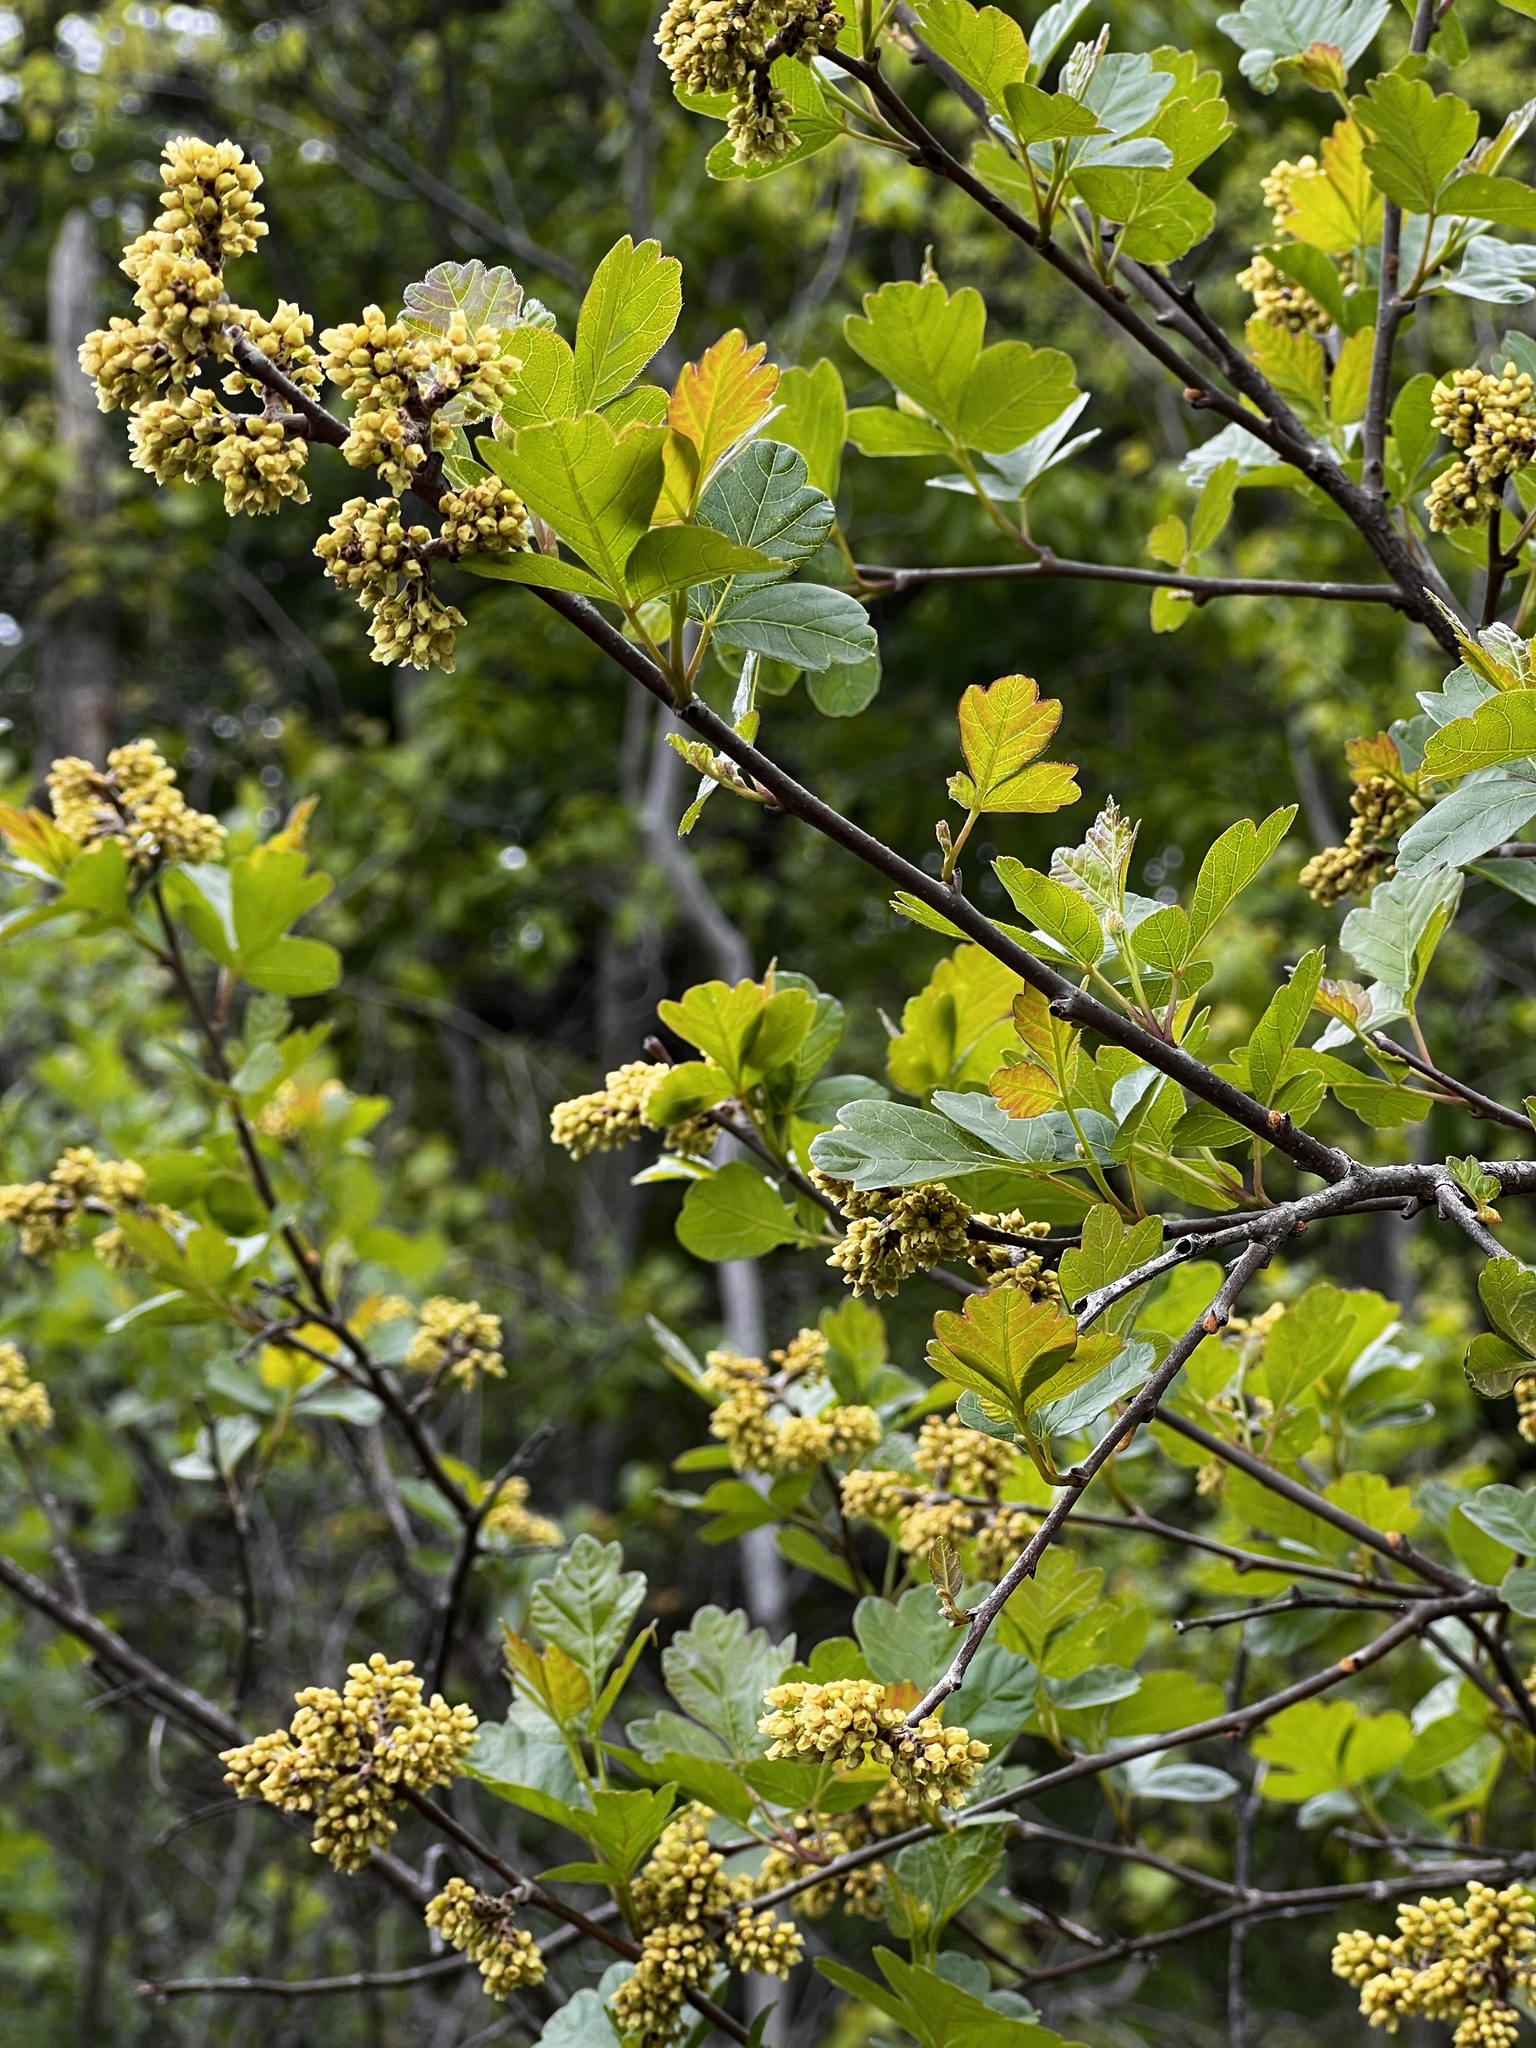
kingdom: Plantae
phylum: Tracheophyta
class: Magnoliopsida
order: Sapindales
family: Anacardiaceae
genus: Rhus
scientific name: Rhus aromatica
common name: Aromatic sumac
